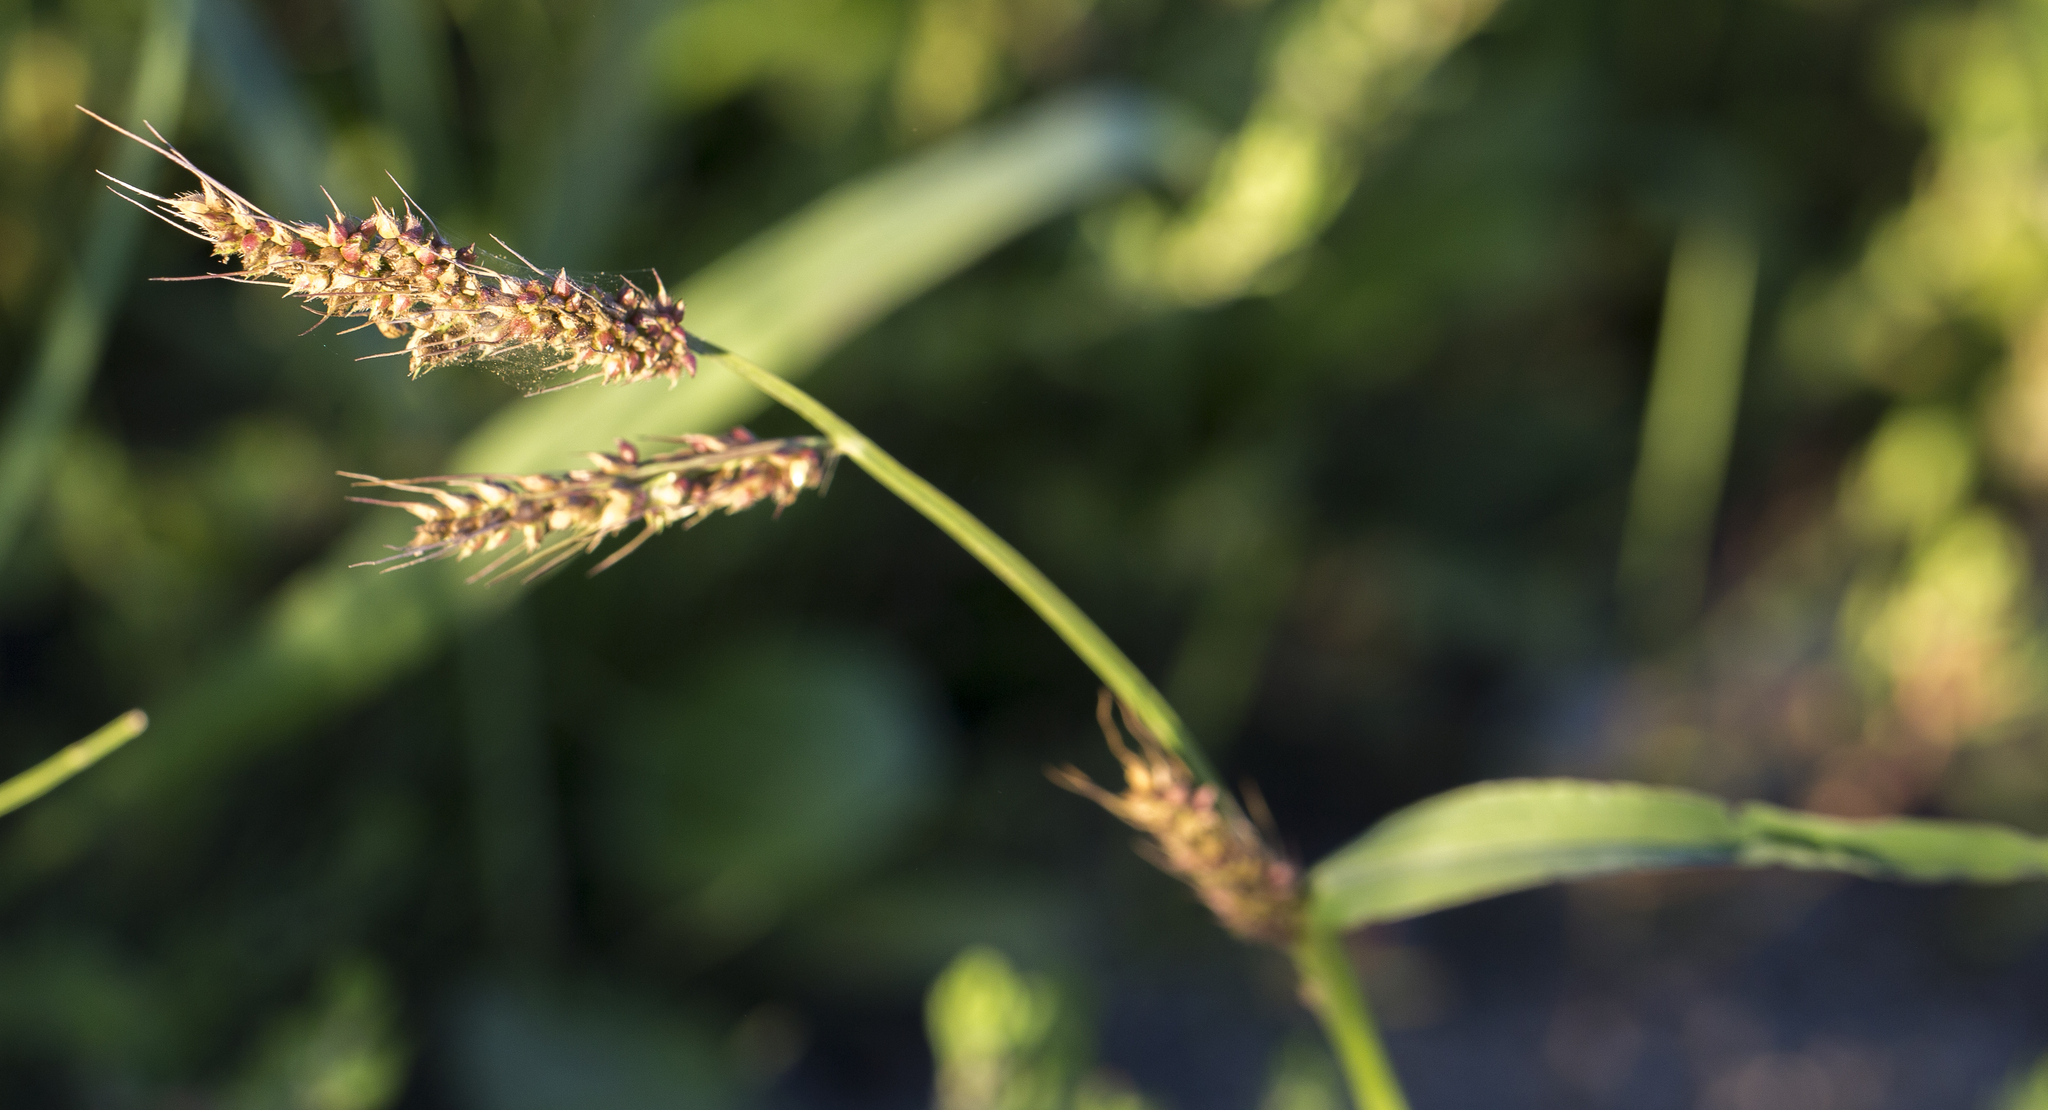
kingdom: Plantae
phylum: Tracheophyta
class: Liliopsida
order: Poales
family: Poaceae
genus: Echinochloa
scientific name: Echinochloa crus-galli
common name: Cockspur
